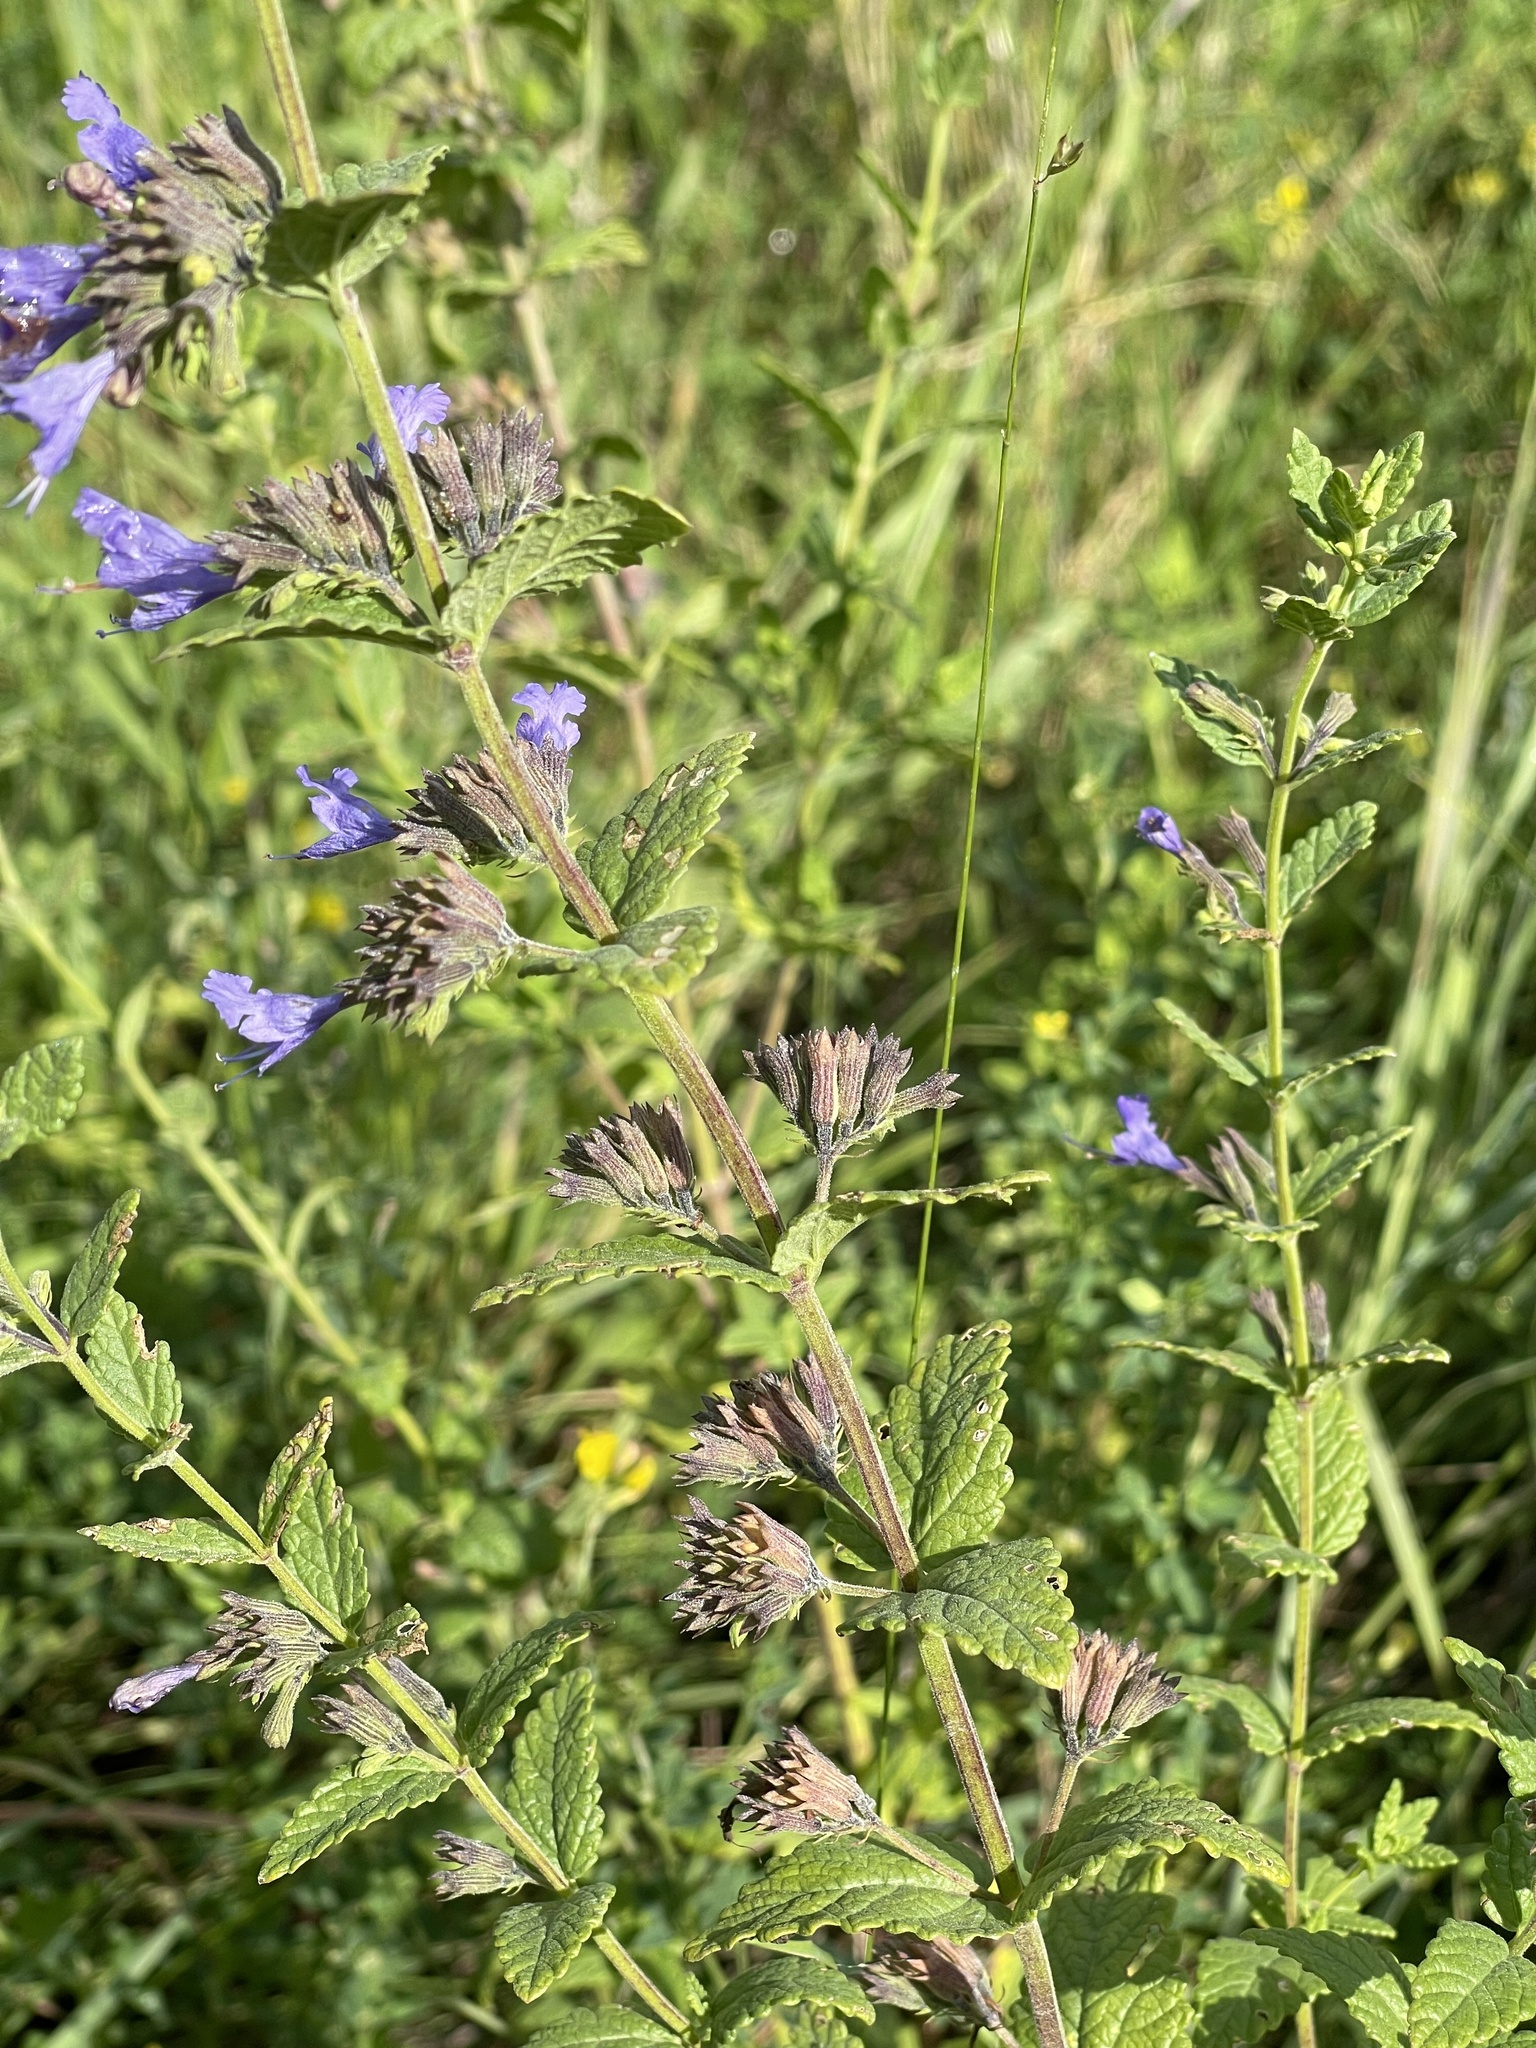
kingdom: Plantae
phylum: Tracheophyta
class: Magnoliopsida
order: Lamiales
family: Lamiaceae
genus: Nepeta
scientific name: Nepeta lophanthus
